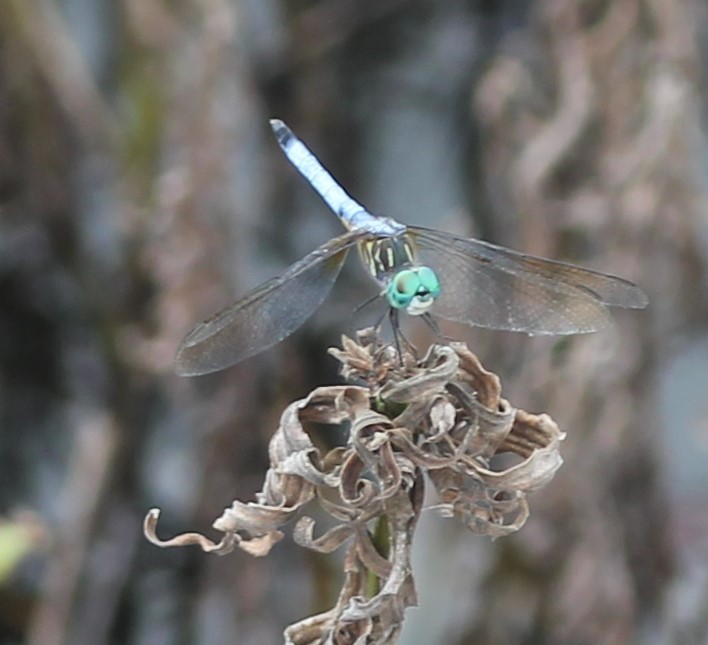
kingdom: Animalia
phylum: Arthropoda
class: Insecta
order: Odonata
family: Libellulidae
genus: Pachydiplax
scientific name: Pachydiplax longipennis
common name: Blue dasher
